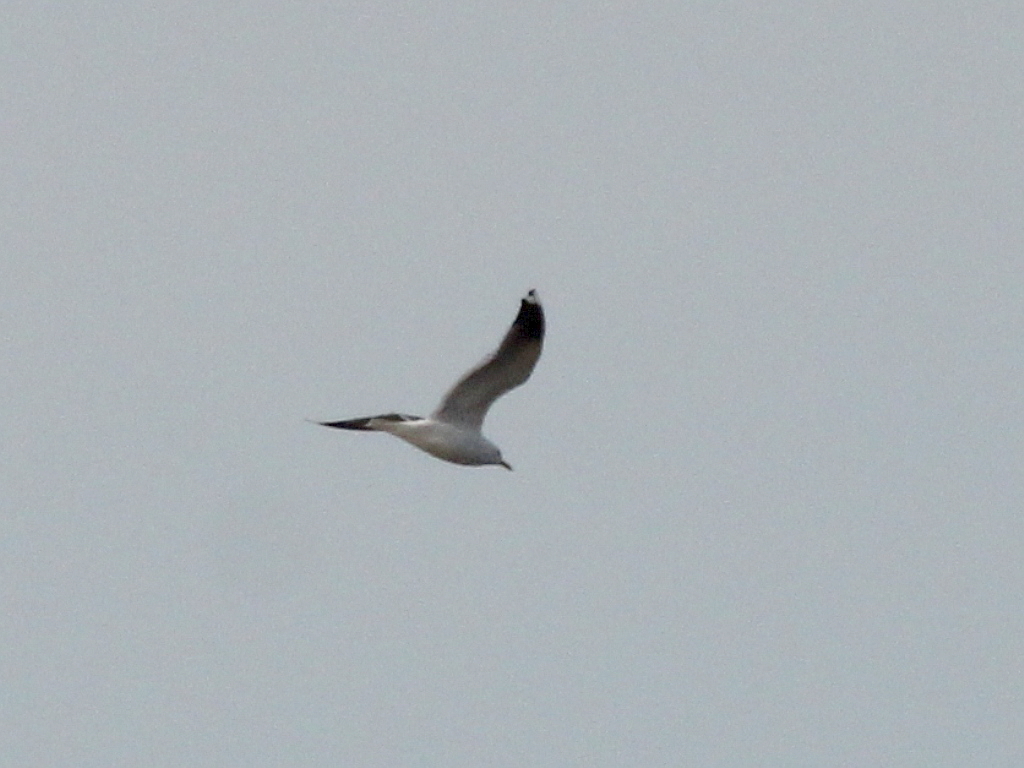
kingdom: Animalia
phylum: Chordata
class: Aves
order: Charadriiformes
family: Laridae
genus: Larus
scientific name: Larus canus
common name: Mew gull
